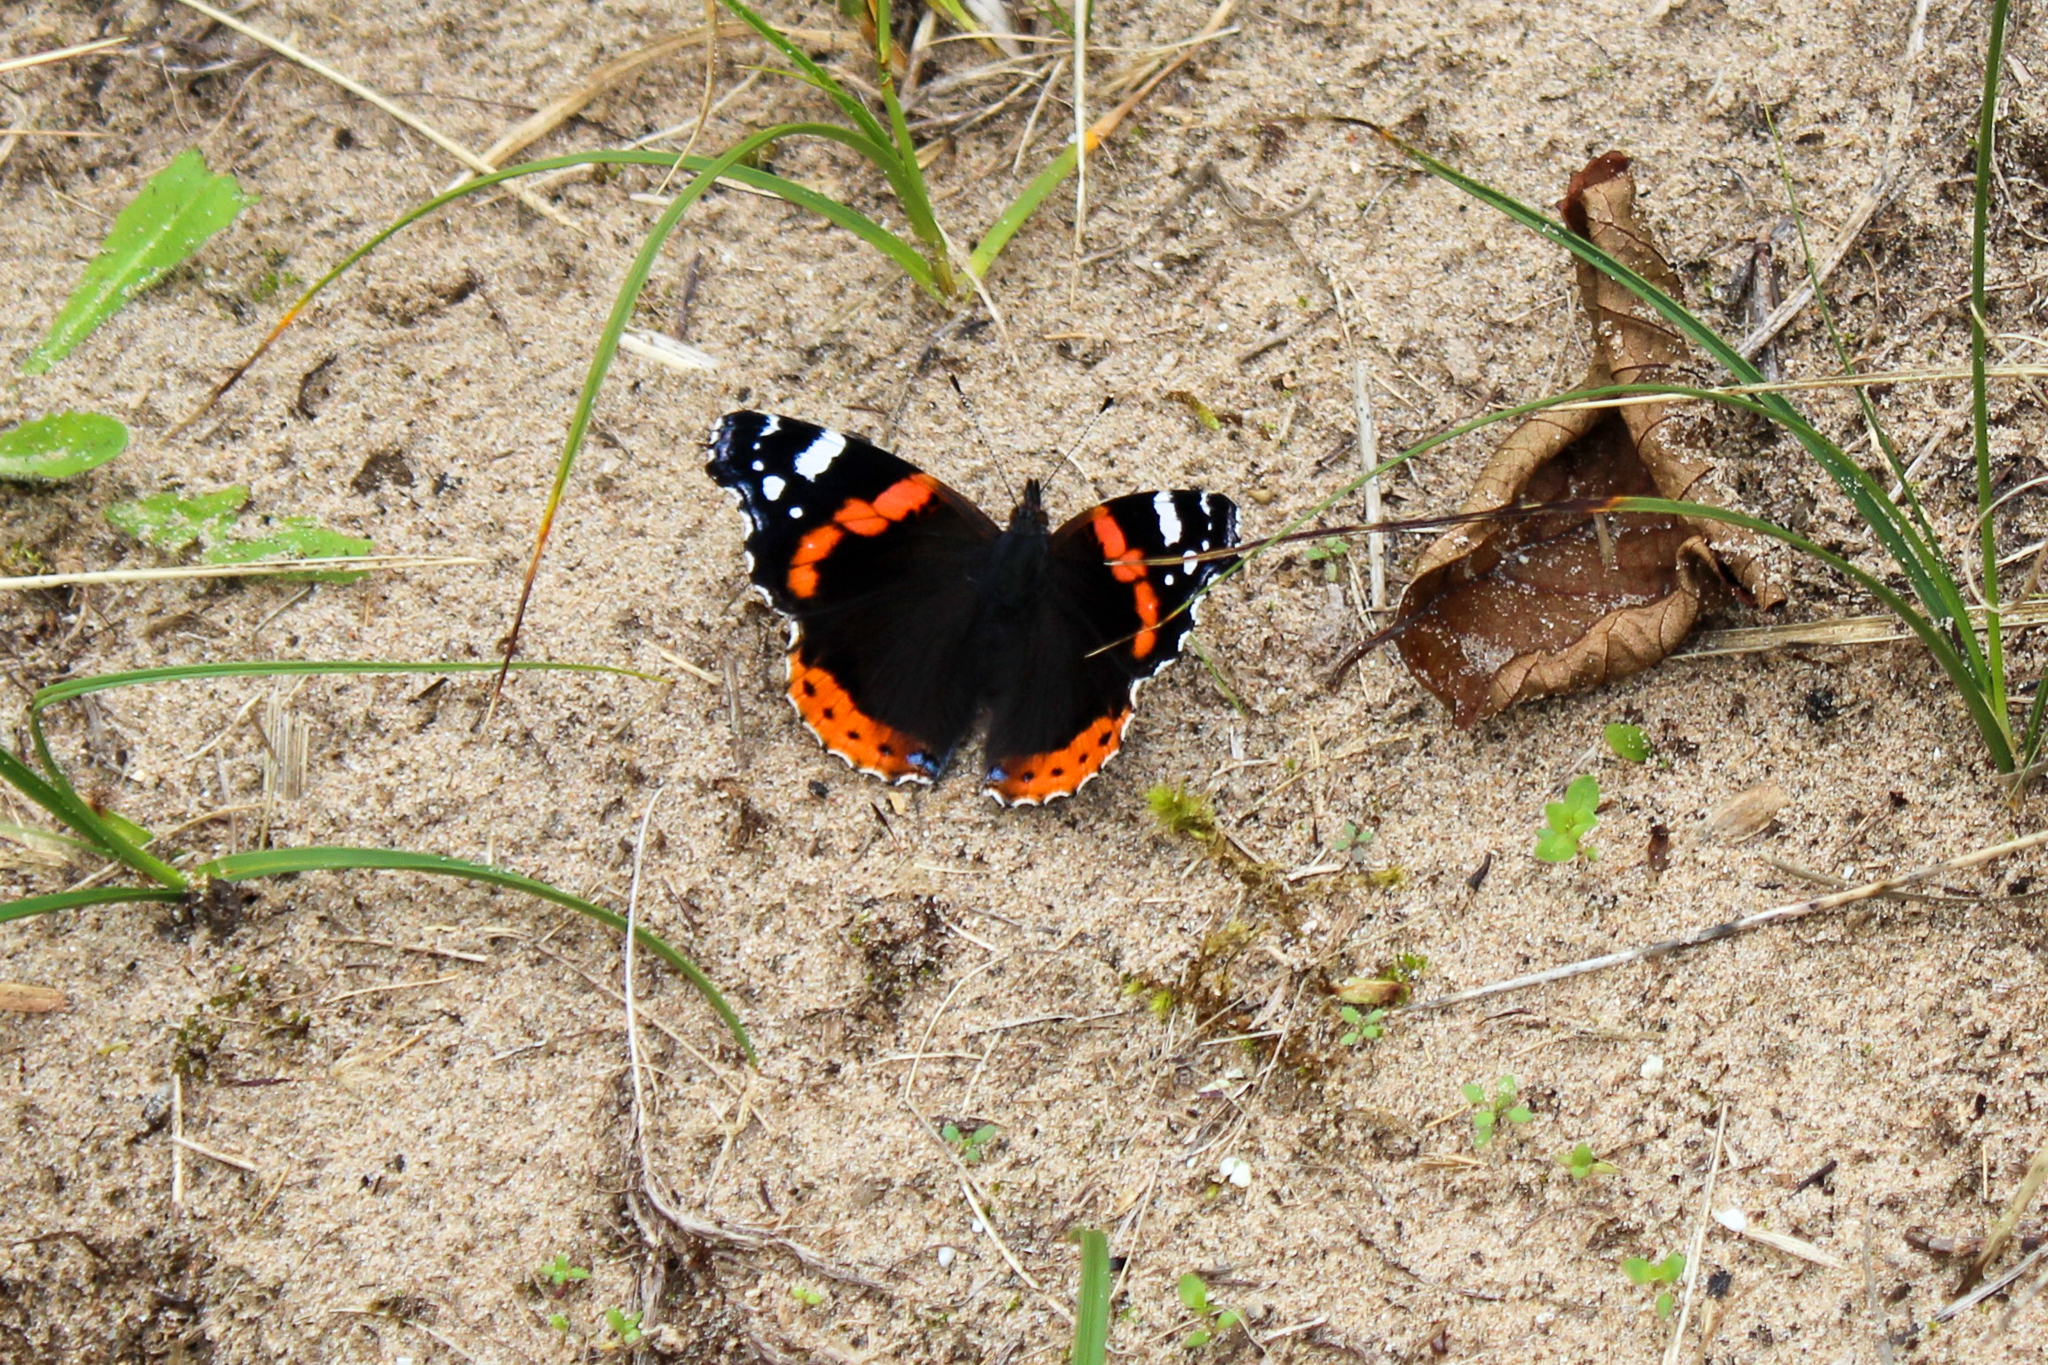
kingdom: Animalia
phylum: Arthropoda
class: Insecta
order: Lepidoptera
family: Nymphalidae
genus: Vanessa
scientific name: Vanessa atalanta
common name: Red admiral
